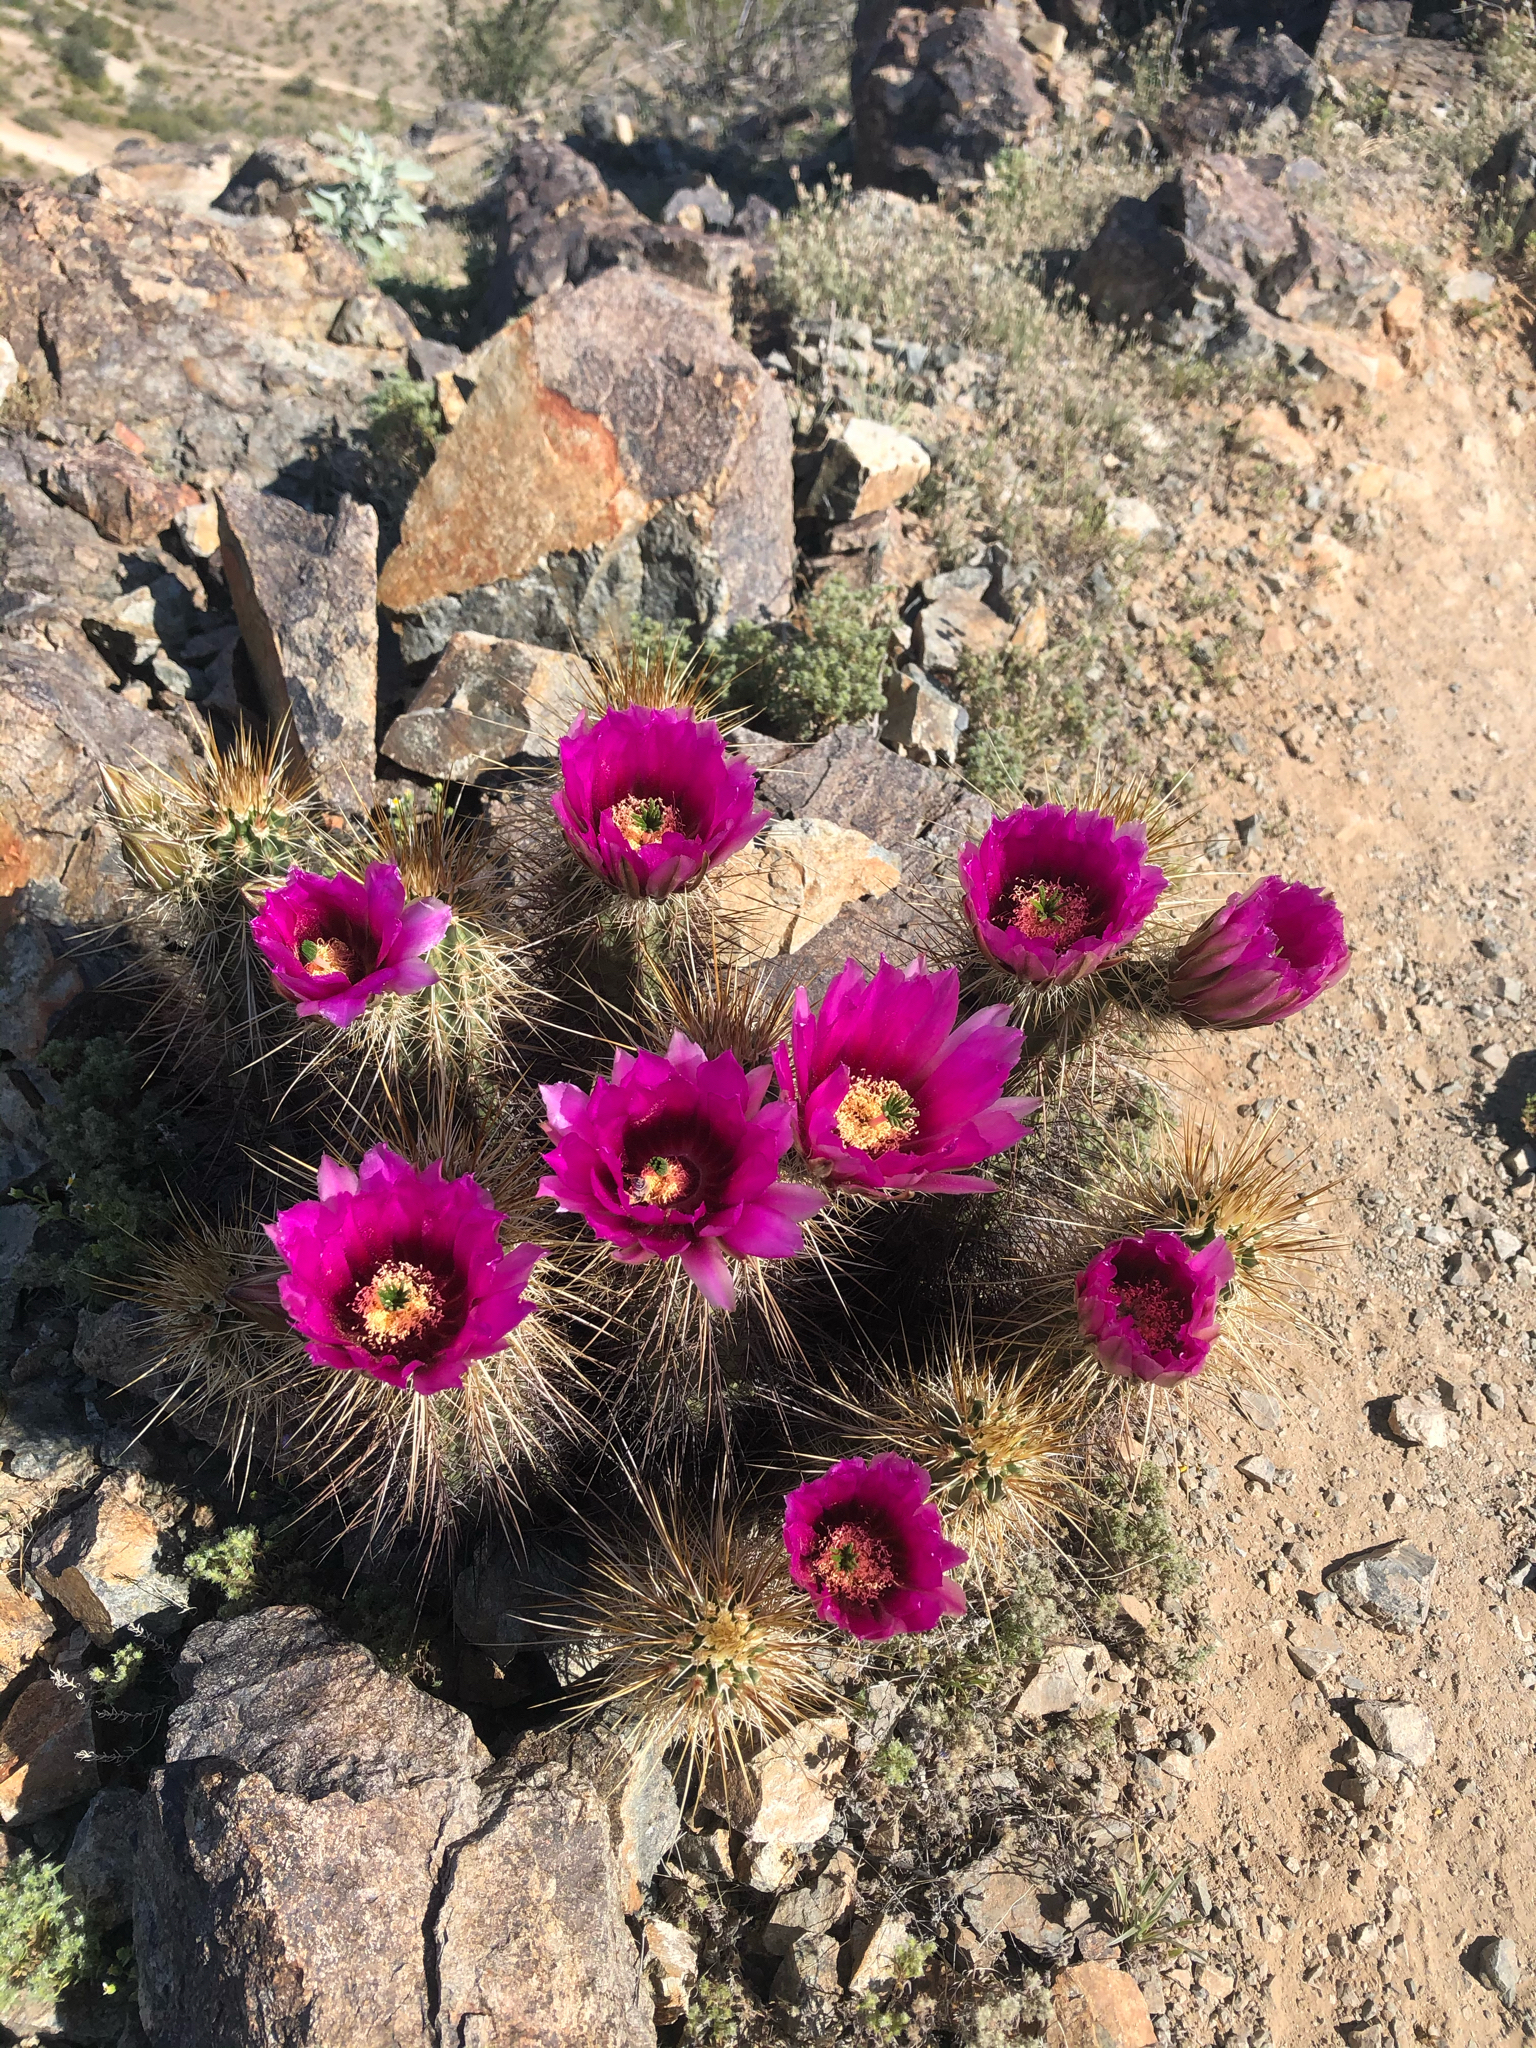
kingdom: Plantae
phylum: Tracheophyta
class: Magnoliopsida
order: Caryophyllales
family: Cactaceae
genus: Echinocereus
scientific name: Echinocereus engelmannii
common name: Engelmann's hedgehog cactus
